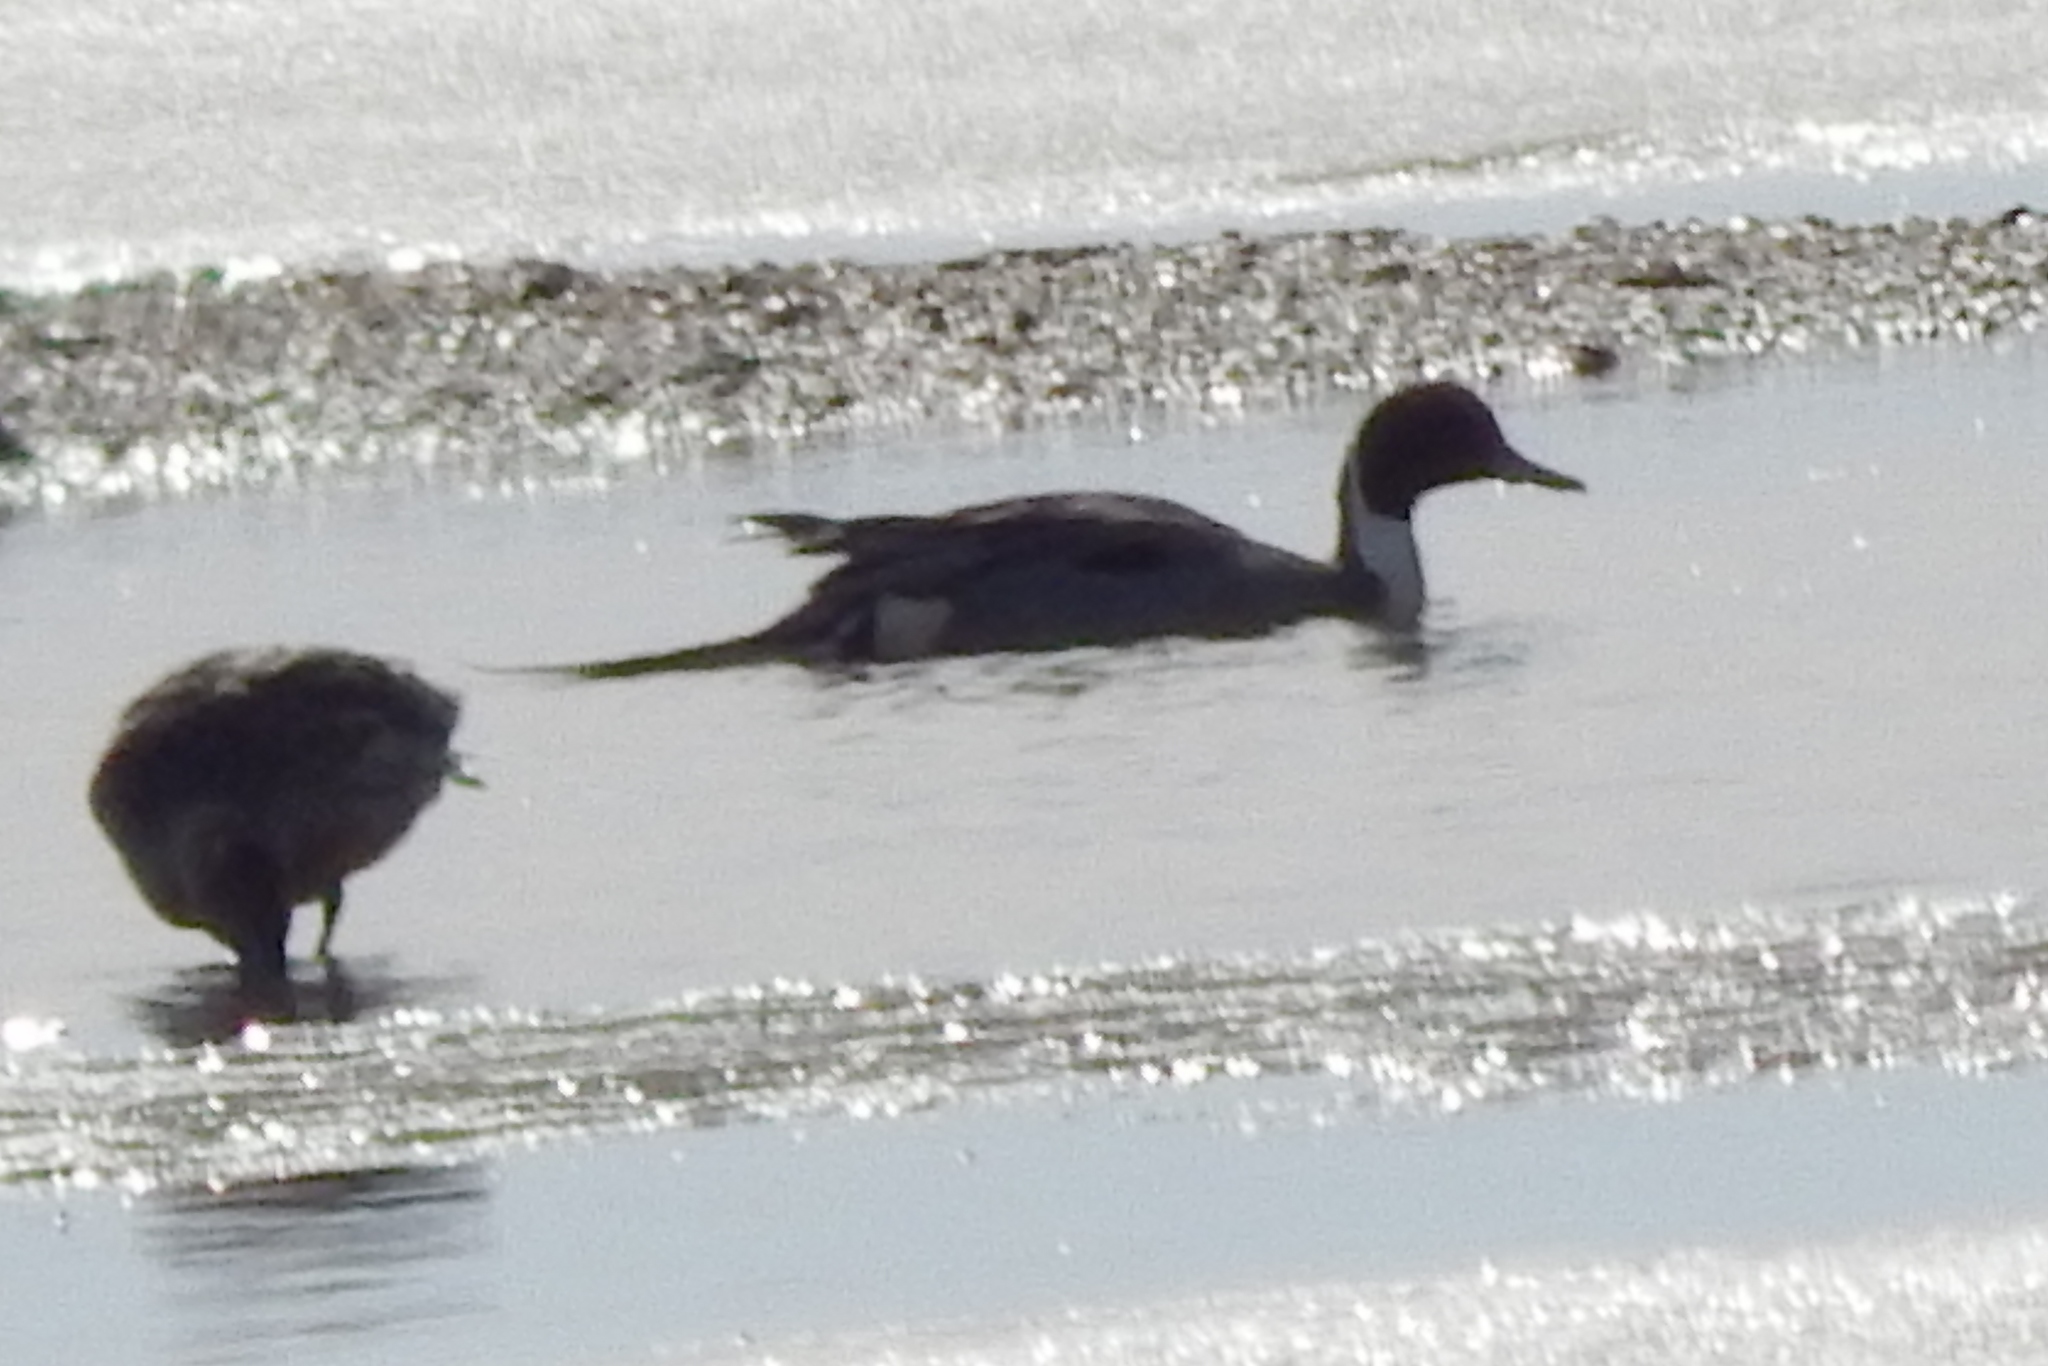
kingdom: Animalia
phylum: Chordata
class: Aves
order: Anseriformes
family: Anatidae
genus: Anas
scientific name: Anas acuta
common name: Northern pintail
